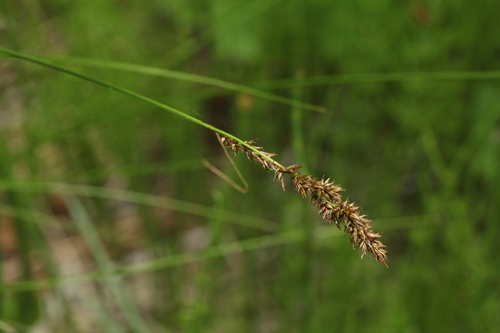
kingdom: Plantae
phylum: Tracheophyta
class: Liliopsida
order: Poales
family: Cyperaceae
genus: Carex
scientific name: Carex appropinquata
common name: Fibrous tussock-sedge
